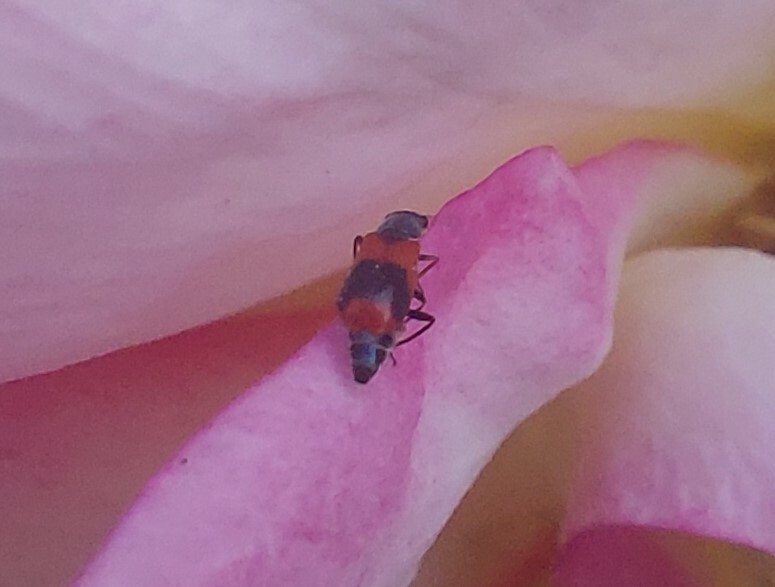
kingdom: Animalia
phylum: Arthropoda
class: Insecta
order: Coleoptera
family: Melyridae
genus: Anthocomus
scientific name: Anthocomus equestris
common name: Black-banded soft-winged flower beetle
